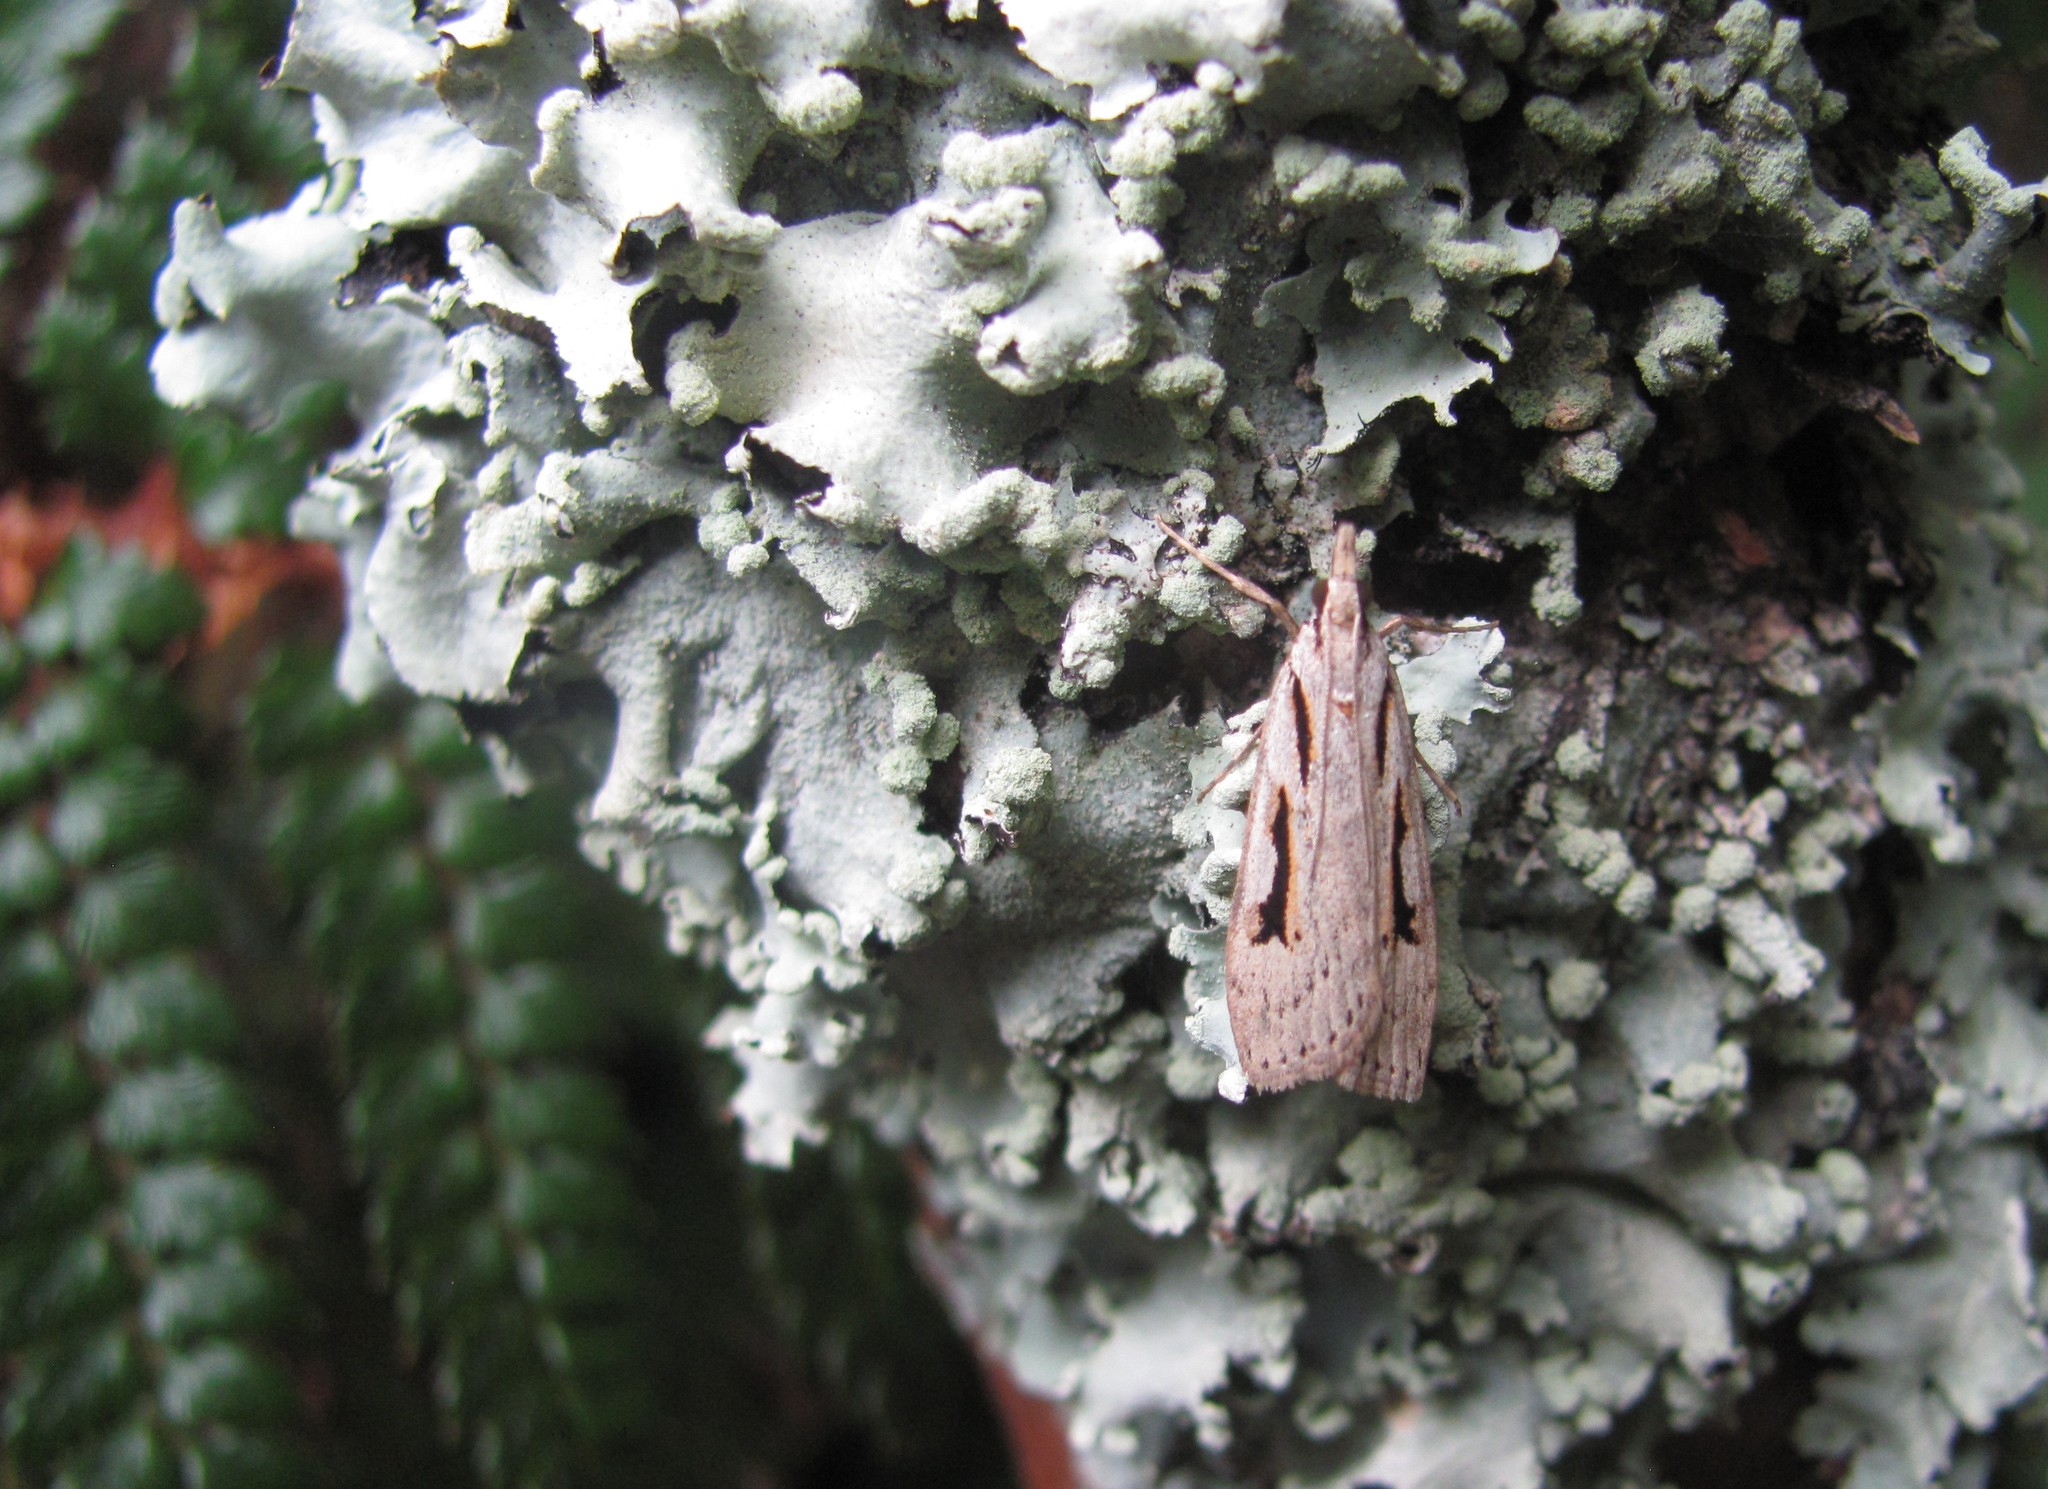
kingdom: Animalia
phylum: Arthropoda
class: Insecta
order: Lepidoptera
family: Crambidae
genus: Scoparia
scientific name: Scoparia rotuellus
